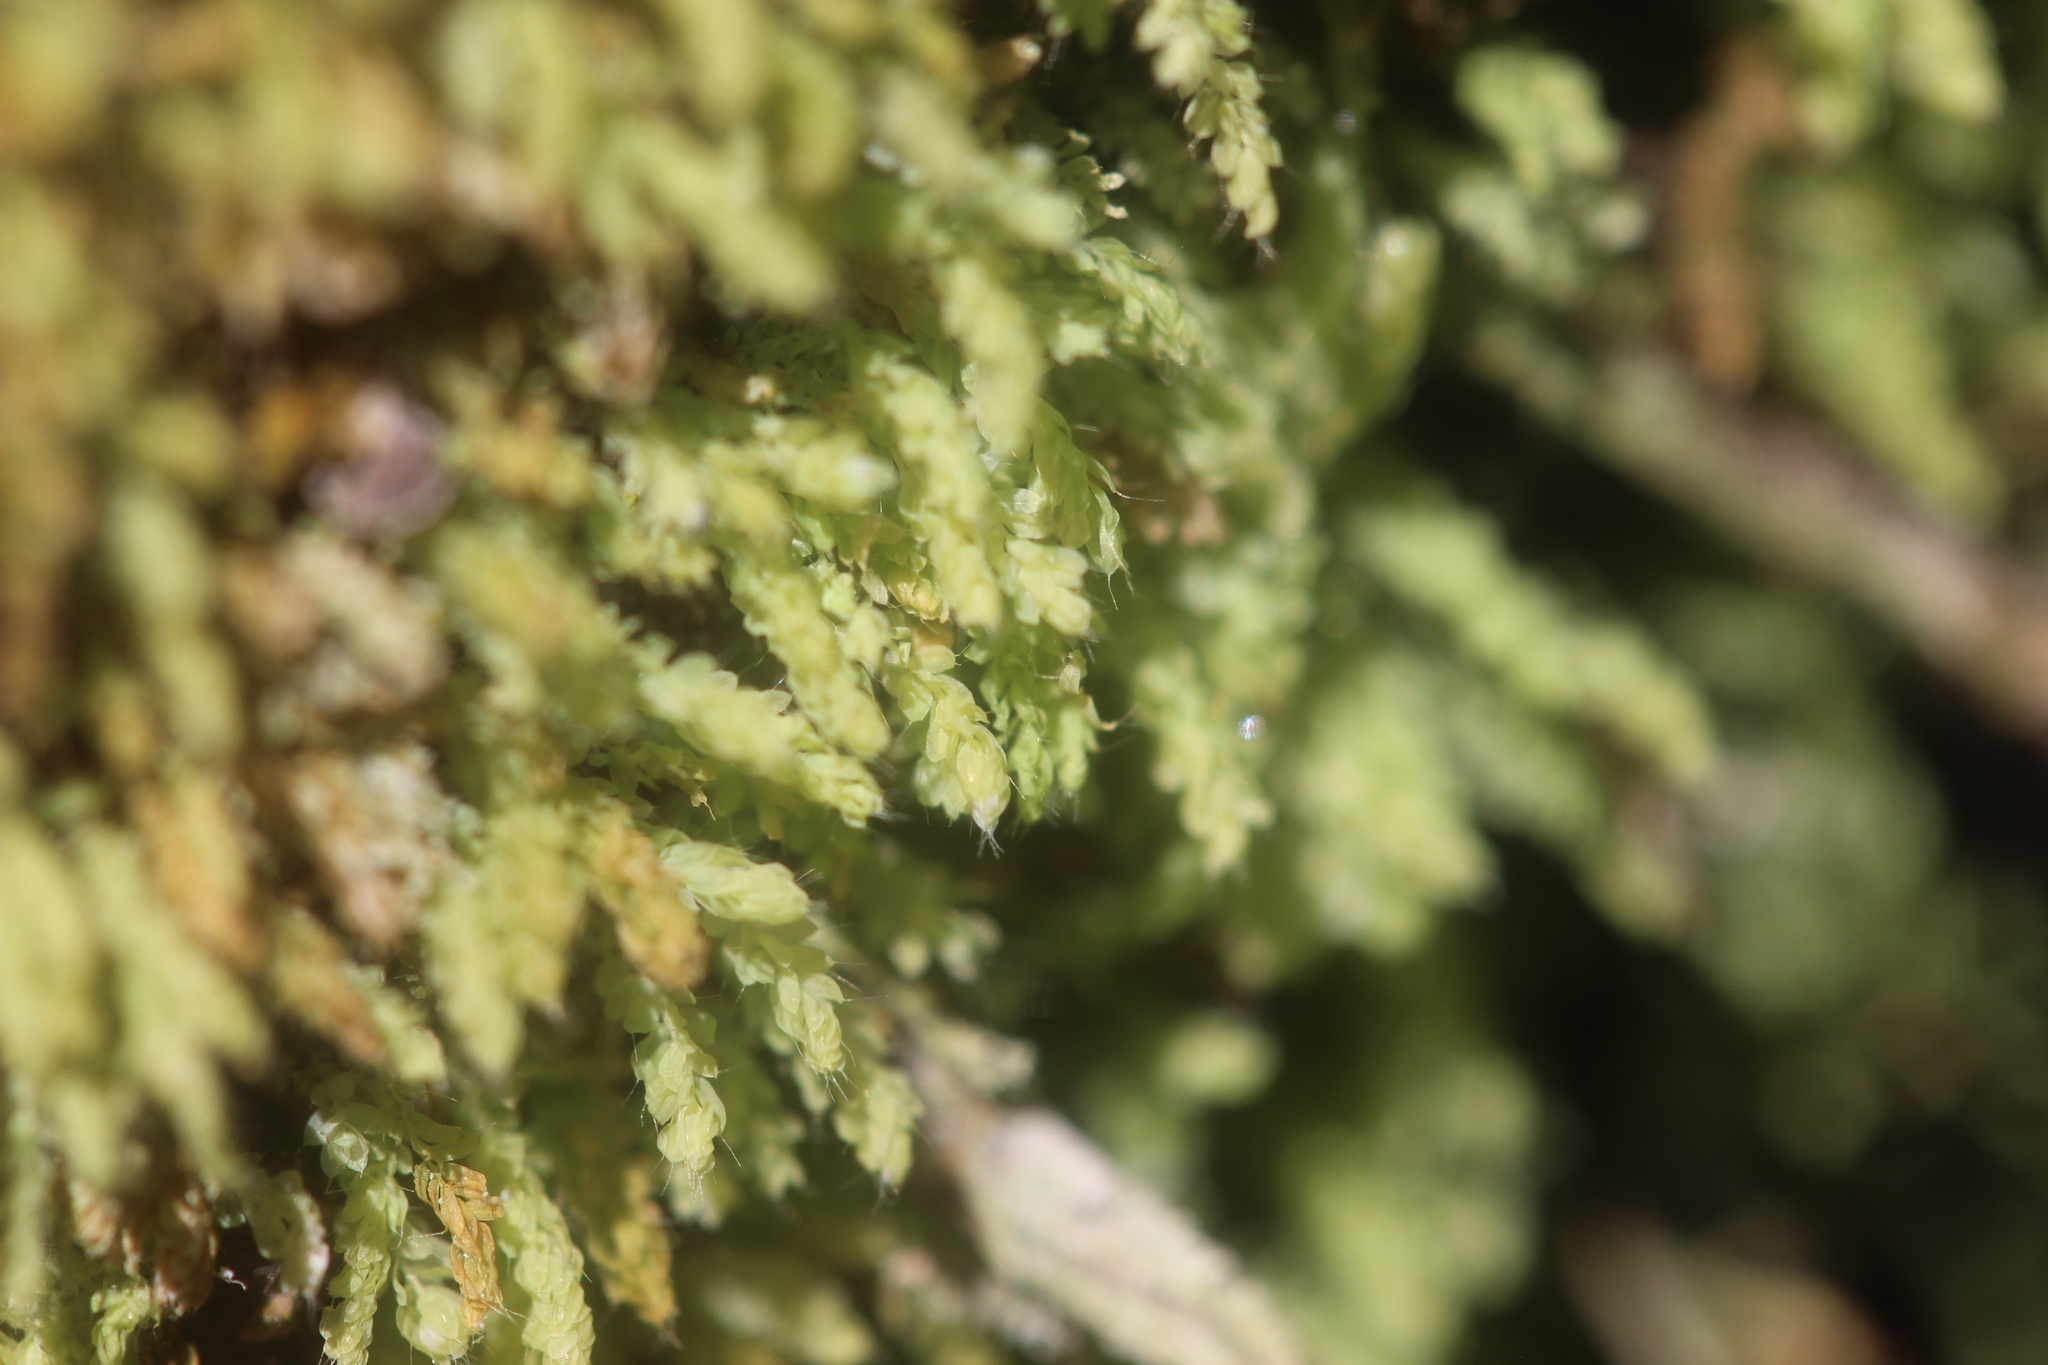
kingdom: Plantae
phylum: Bryophyta
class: Bryopsida
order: Orthodontiales
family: Orthodontiaceae
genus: Hymenodon
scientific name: Hymenodon pilifer
